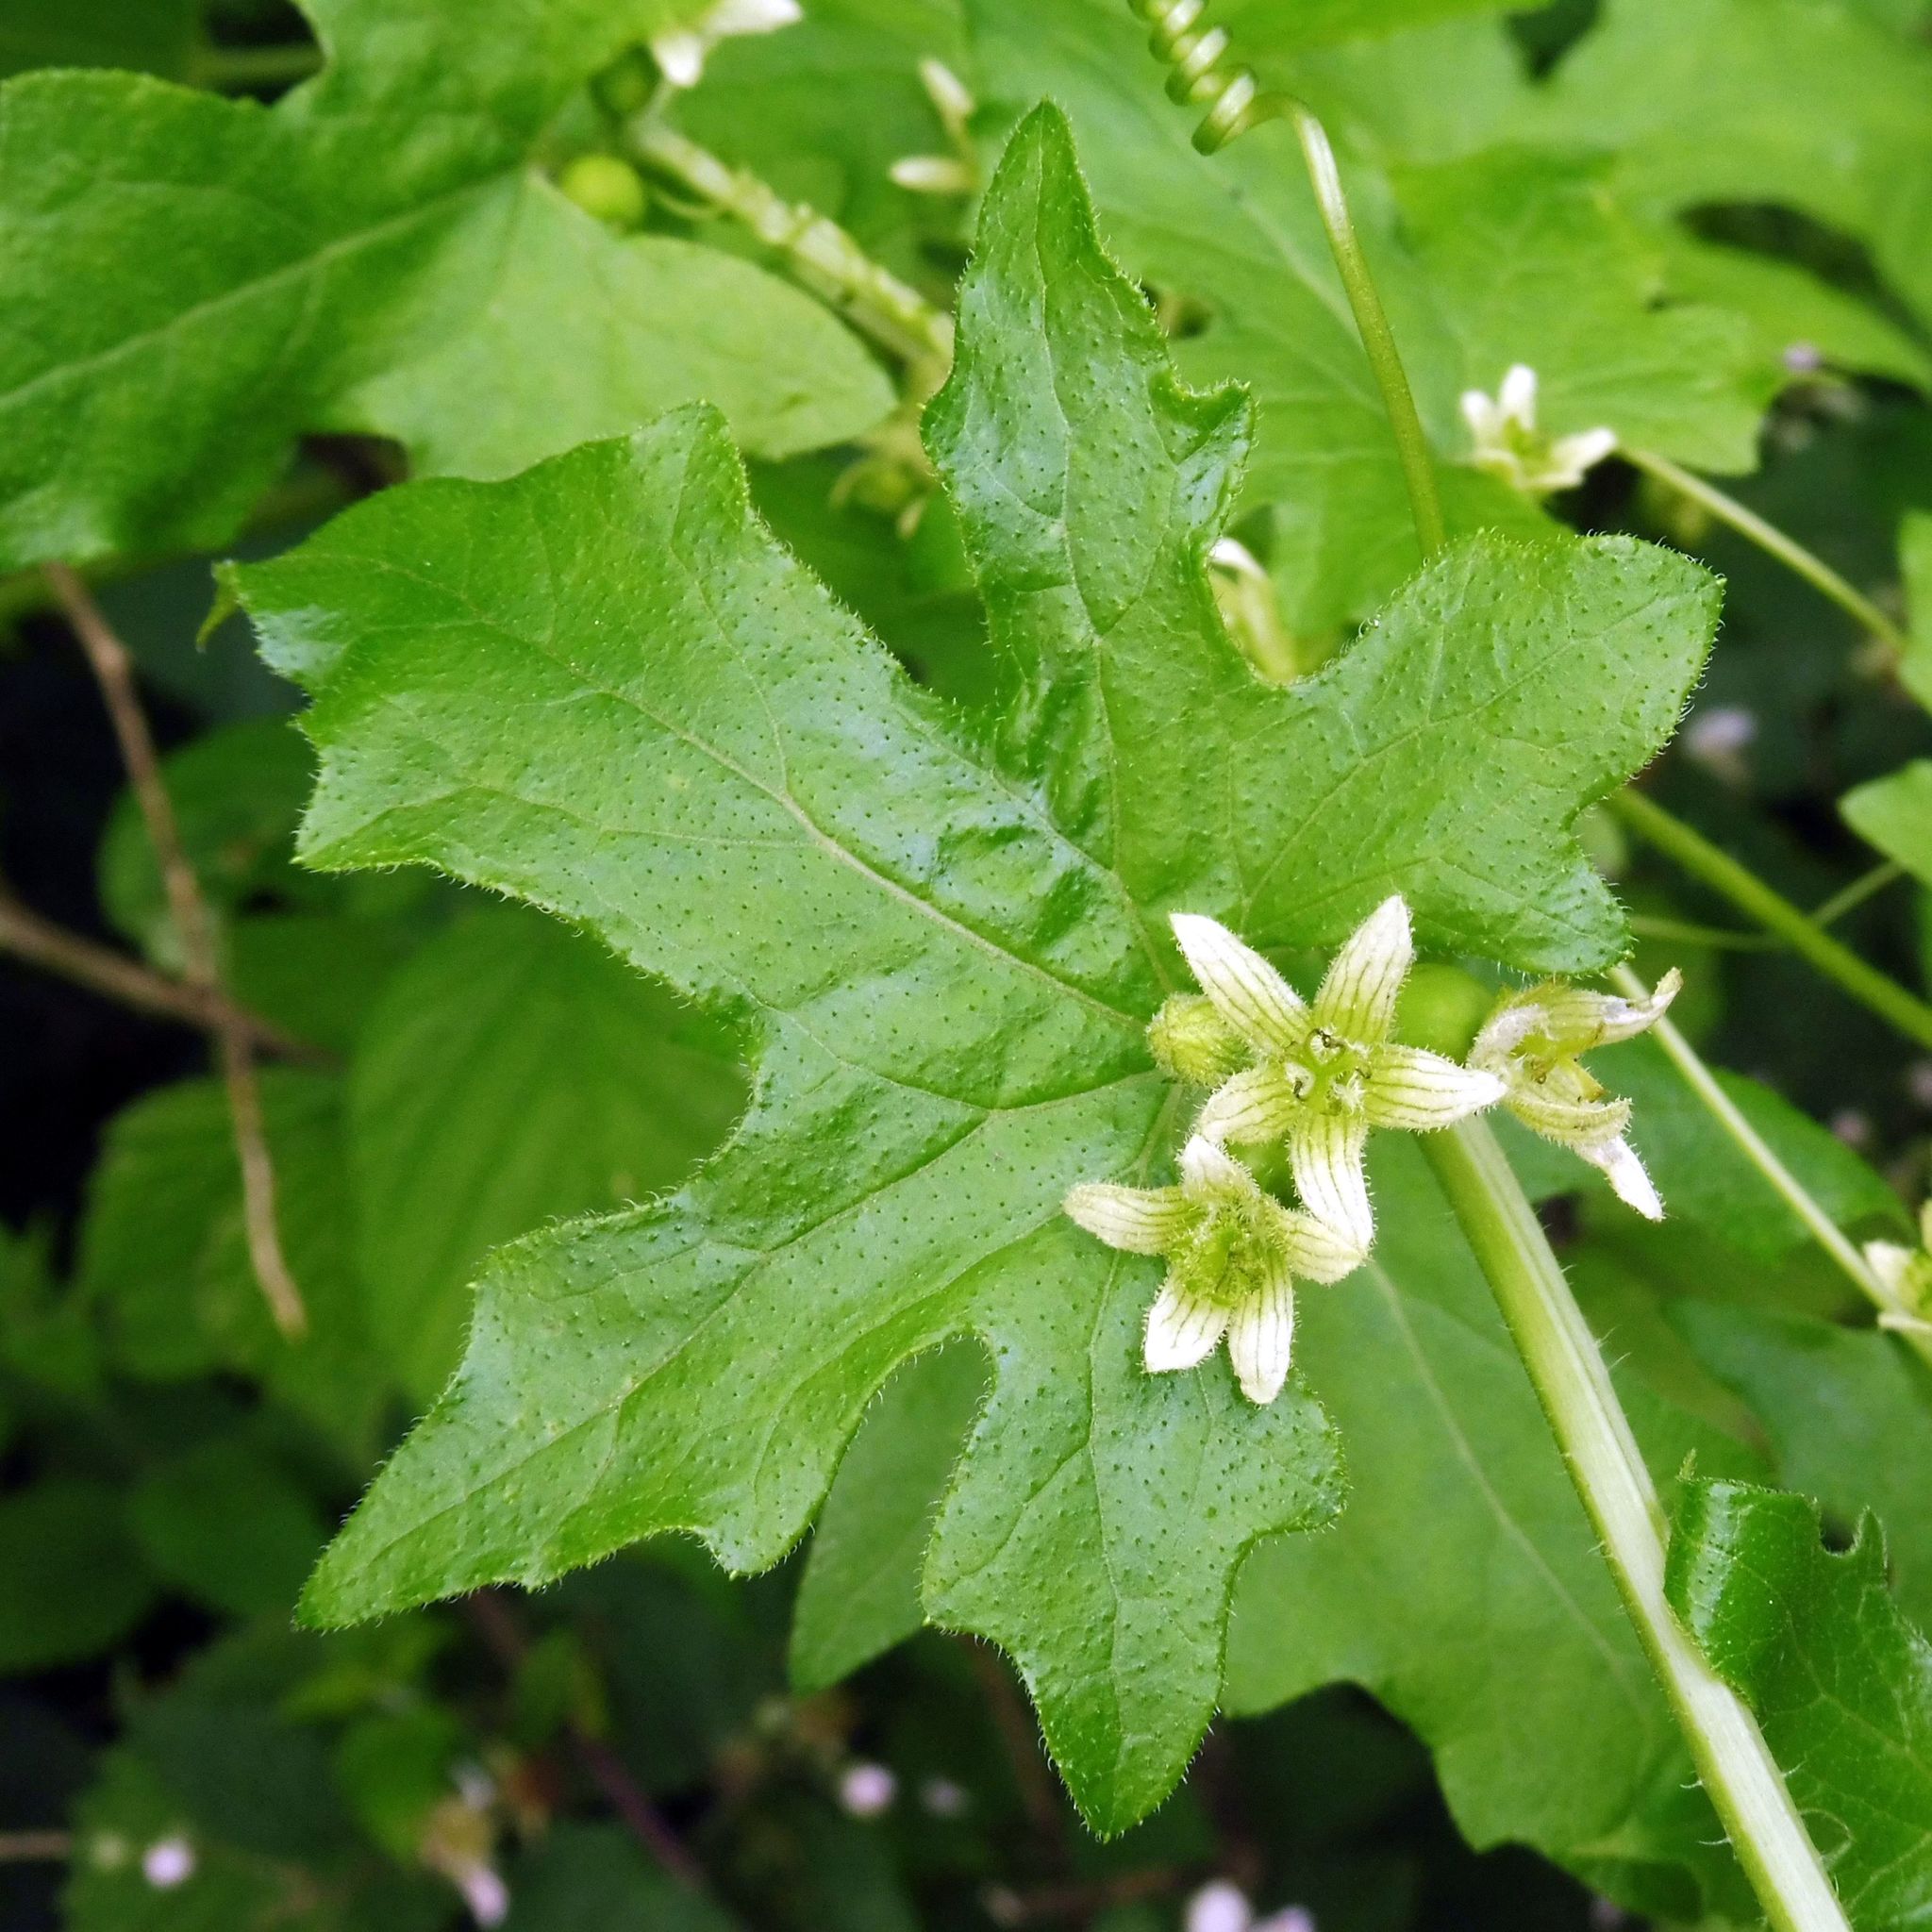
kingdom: Plantae
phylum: Tracheophyta
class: Magnoliopsida
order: Cucurbitales
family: Cucurbitaceae
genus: Bryonia
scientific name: Bryonia dioica
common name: White bryony
